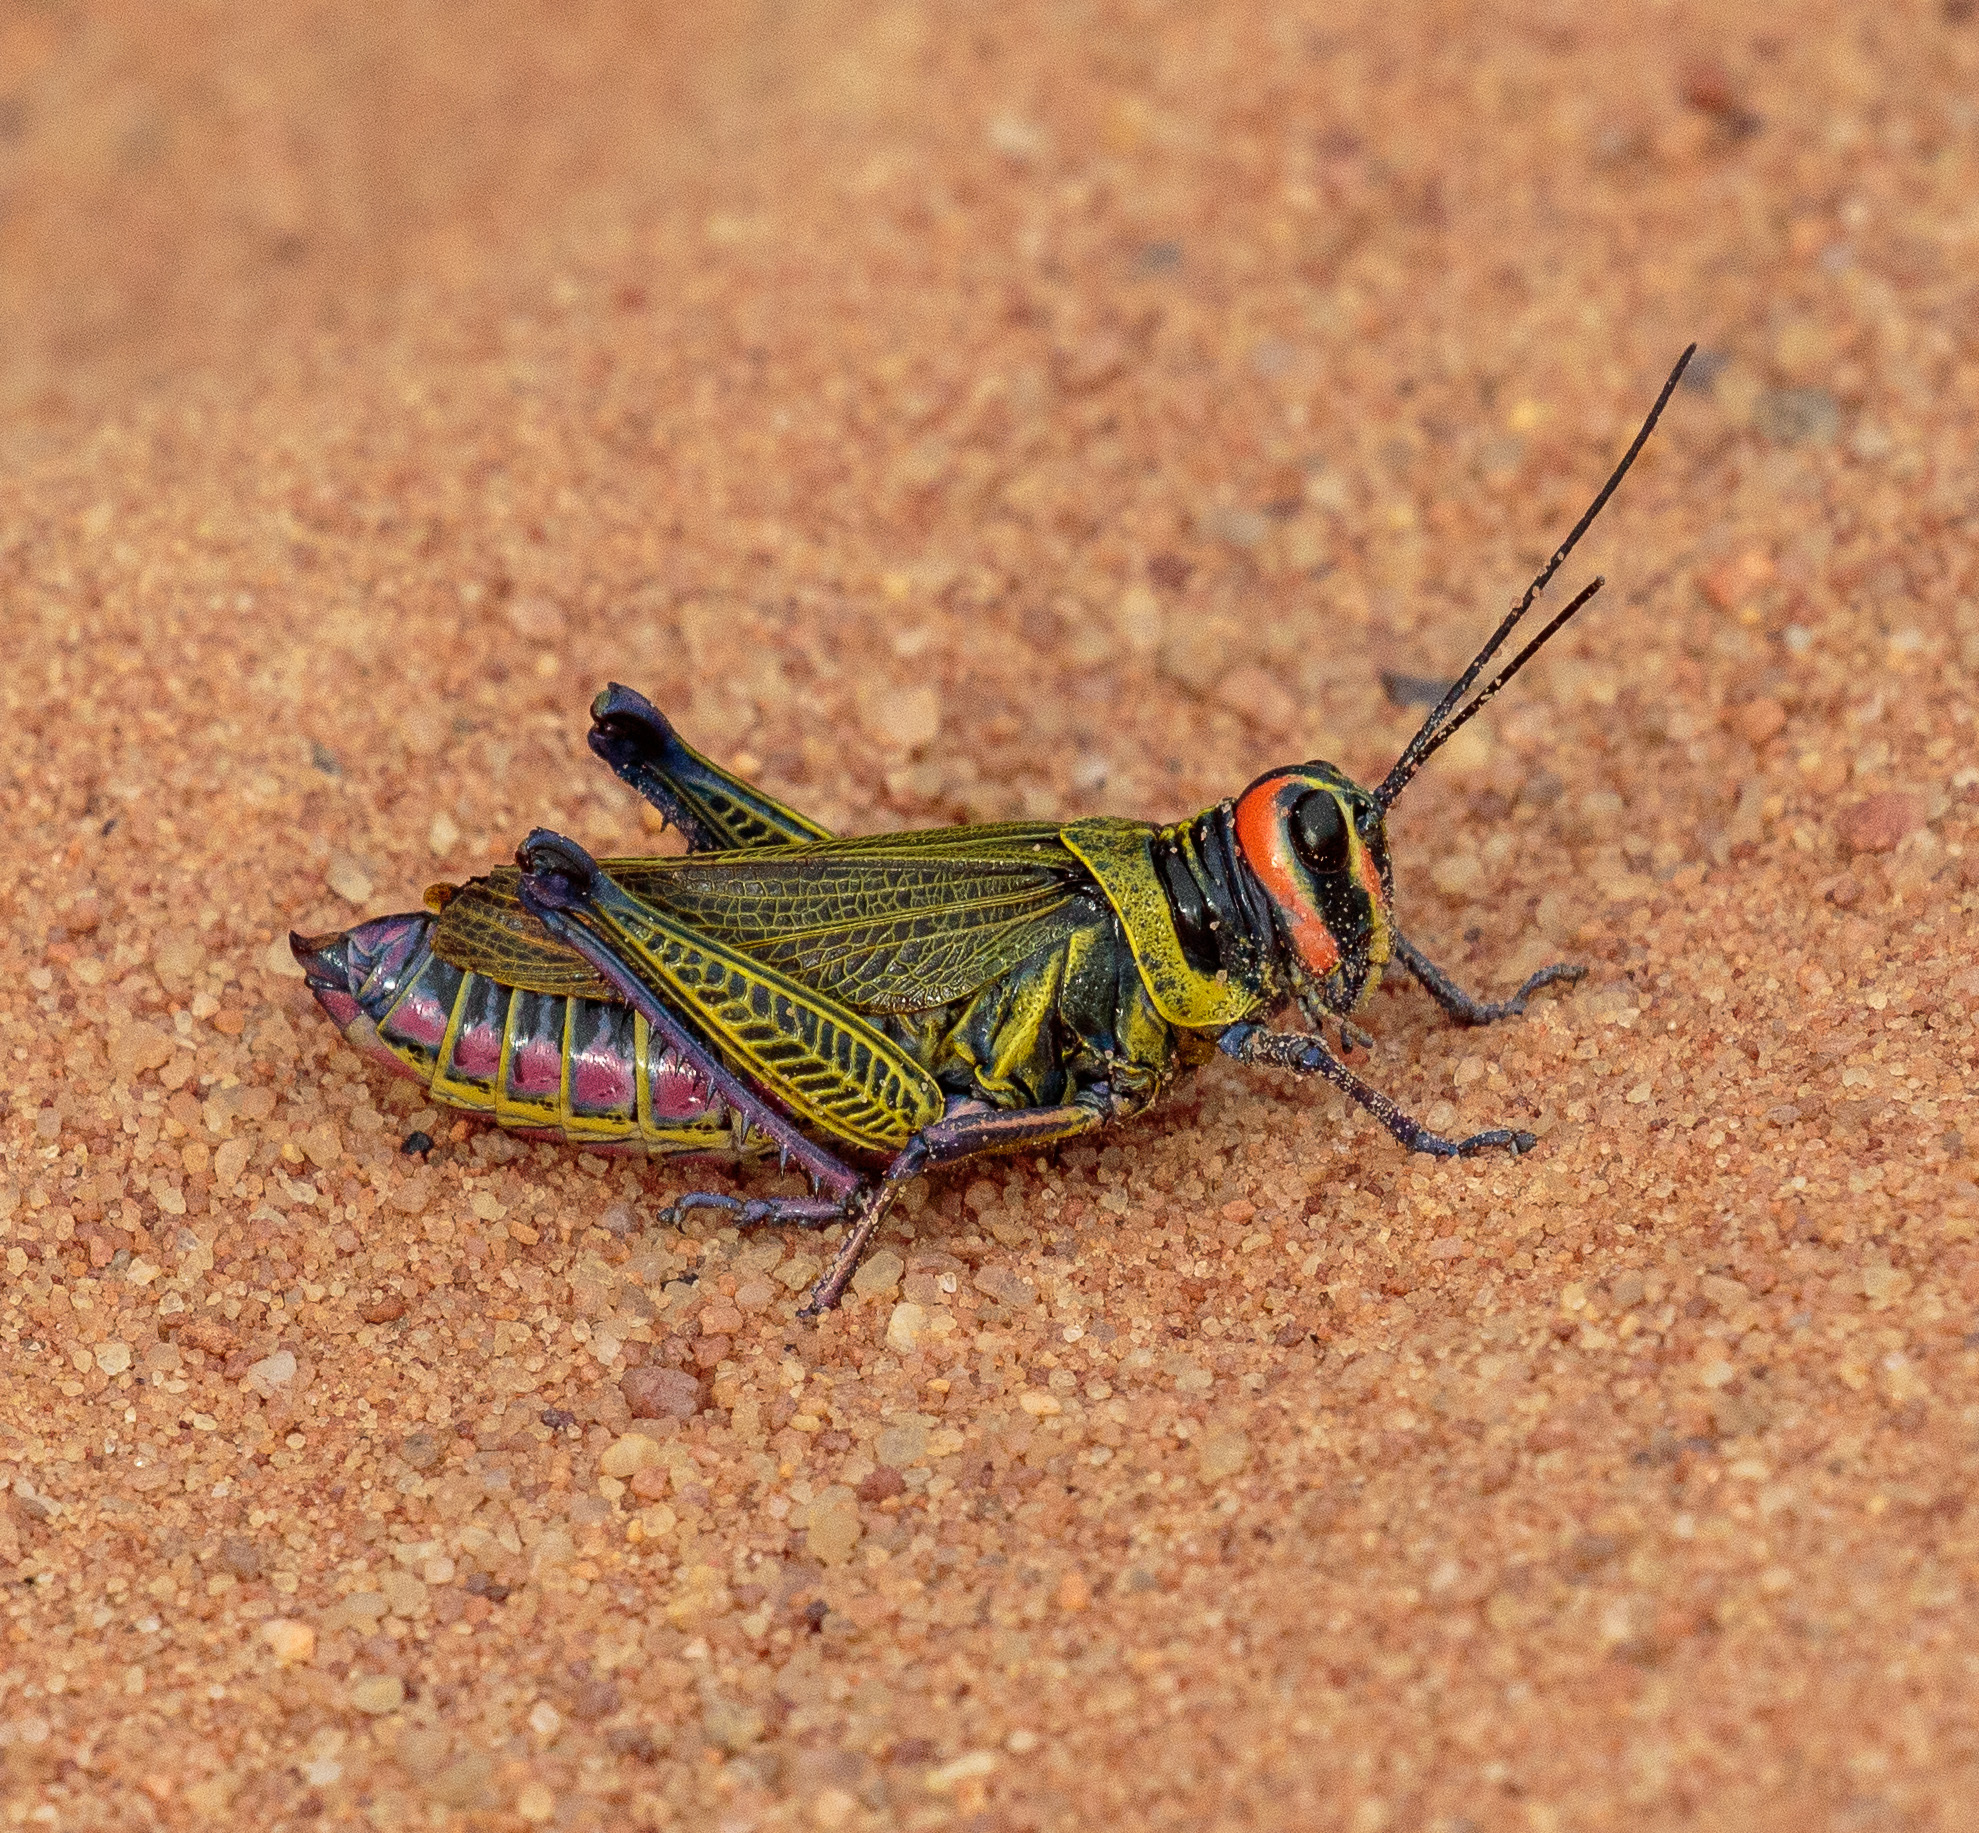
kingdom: Animalia
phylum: Arthropoda
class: Insecta
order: Orthoptera
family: Romaleidae
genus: Xestotrachelus
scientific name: Xestotrachelus robustus
